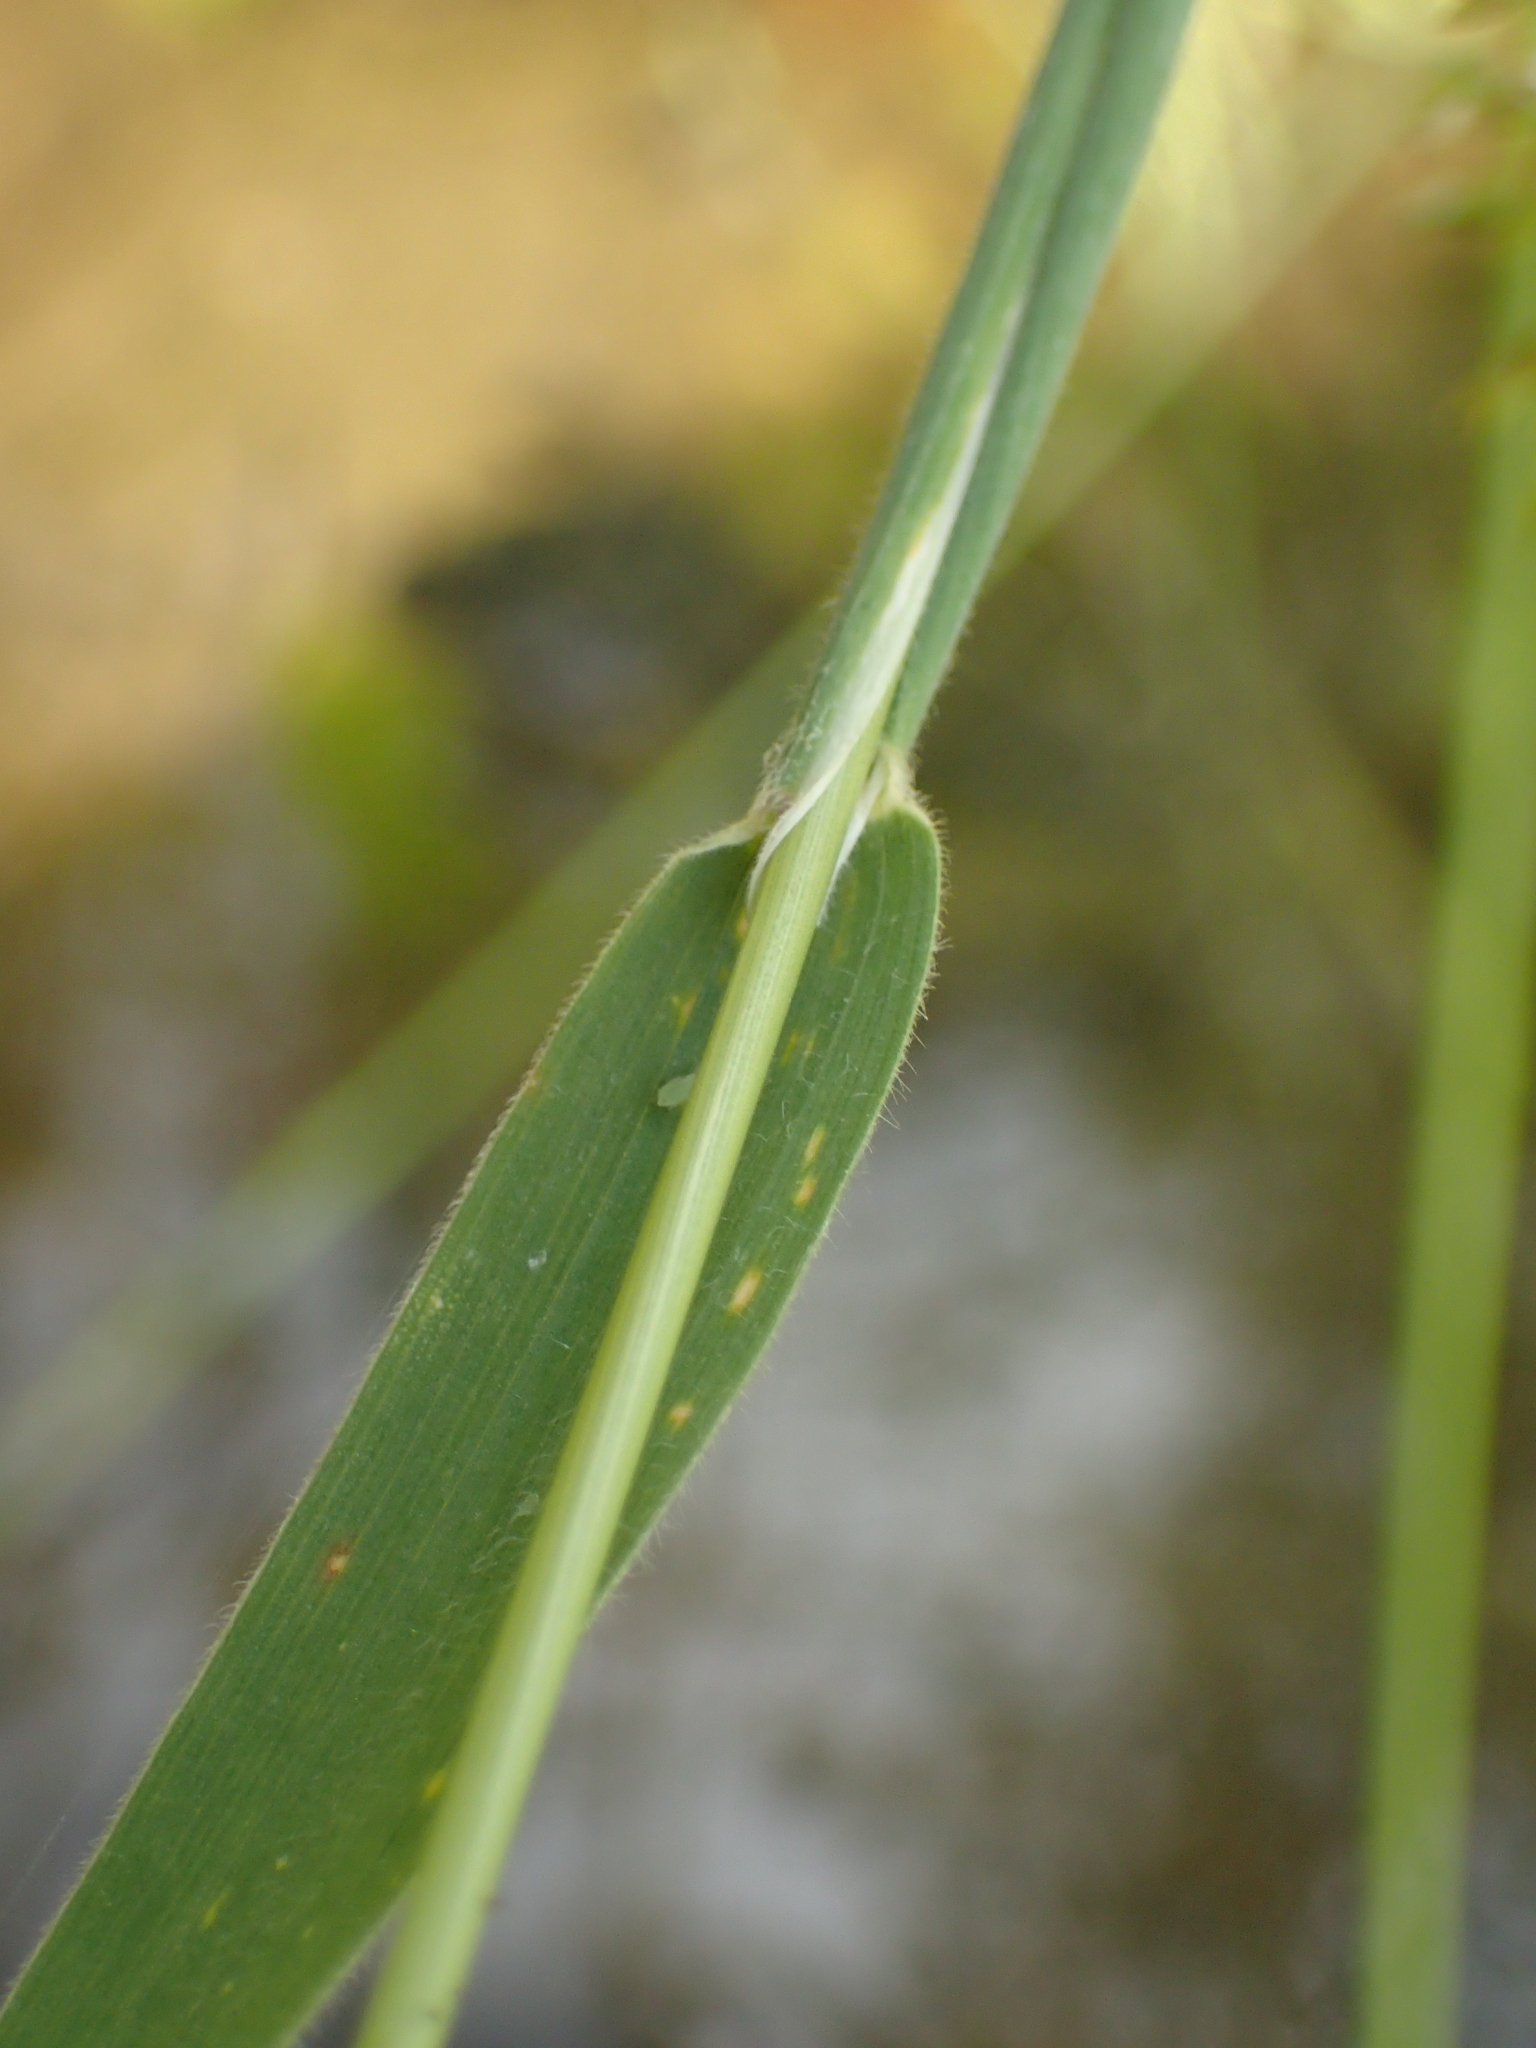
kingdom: Plantae
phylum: Tracheophyta
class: Liliopsida
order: Poales
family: Poaceae
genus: Holcus
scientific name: Holcus lanatus
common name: Yorkshire-fog
